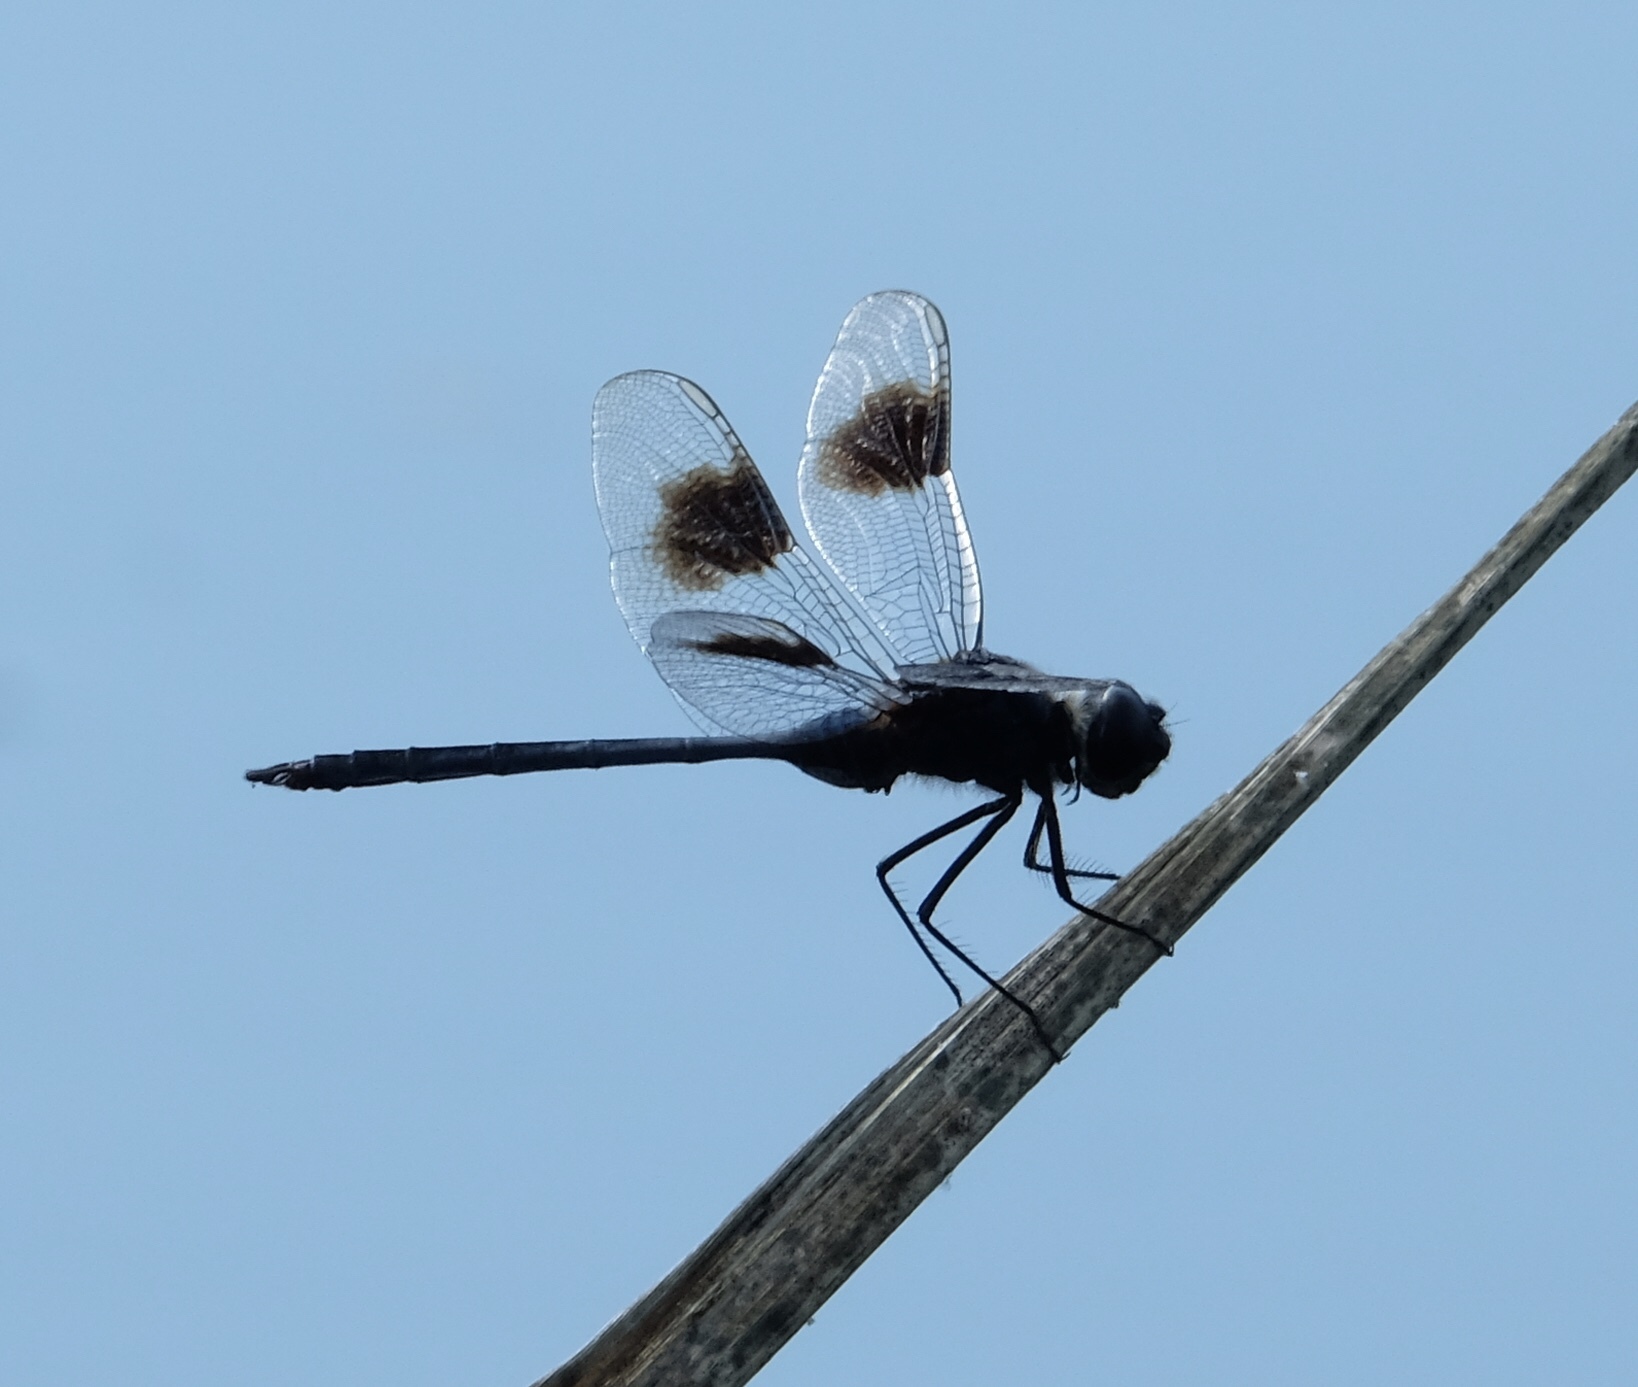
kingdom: Animalia
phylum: Arthropoda
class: Insecta
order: Odonata
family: Libellulidae
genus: Brachymesia
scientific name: Brachymesia gravida
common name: Four-spotted pennant
